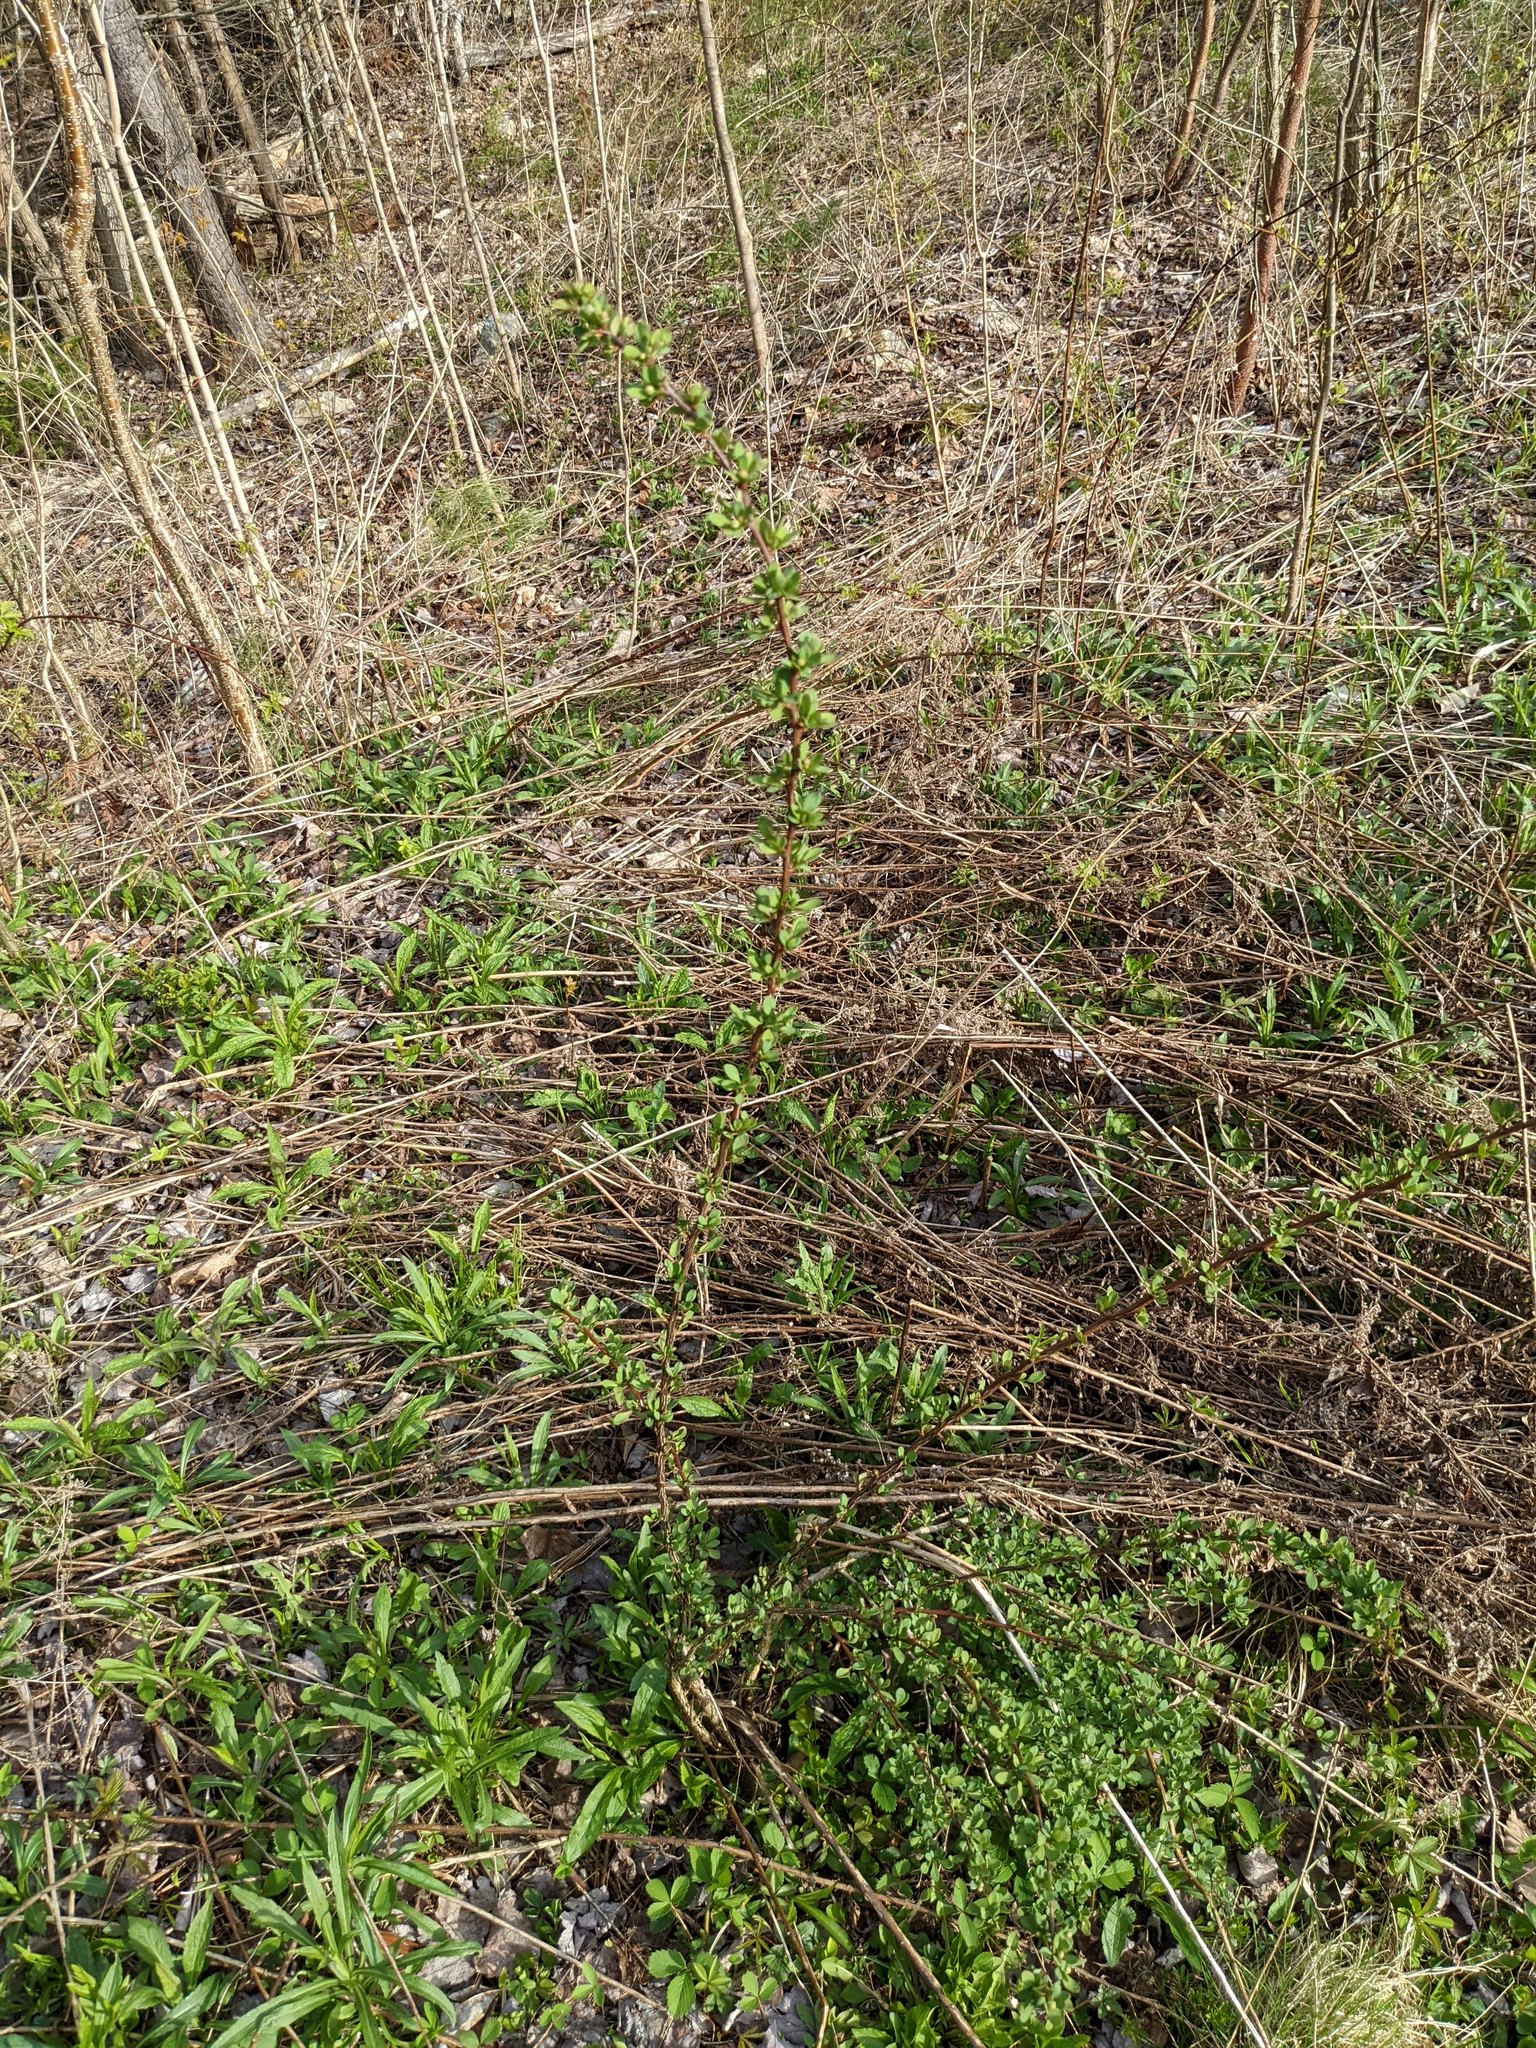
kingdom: Plantae
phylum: Tracheophyta
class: Magnoliopsida
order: Ranunculales
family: Berberidaceae
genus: Berberis
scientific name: Berberis thunbergii
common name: Japanese barberry
